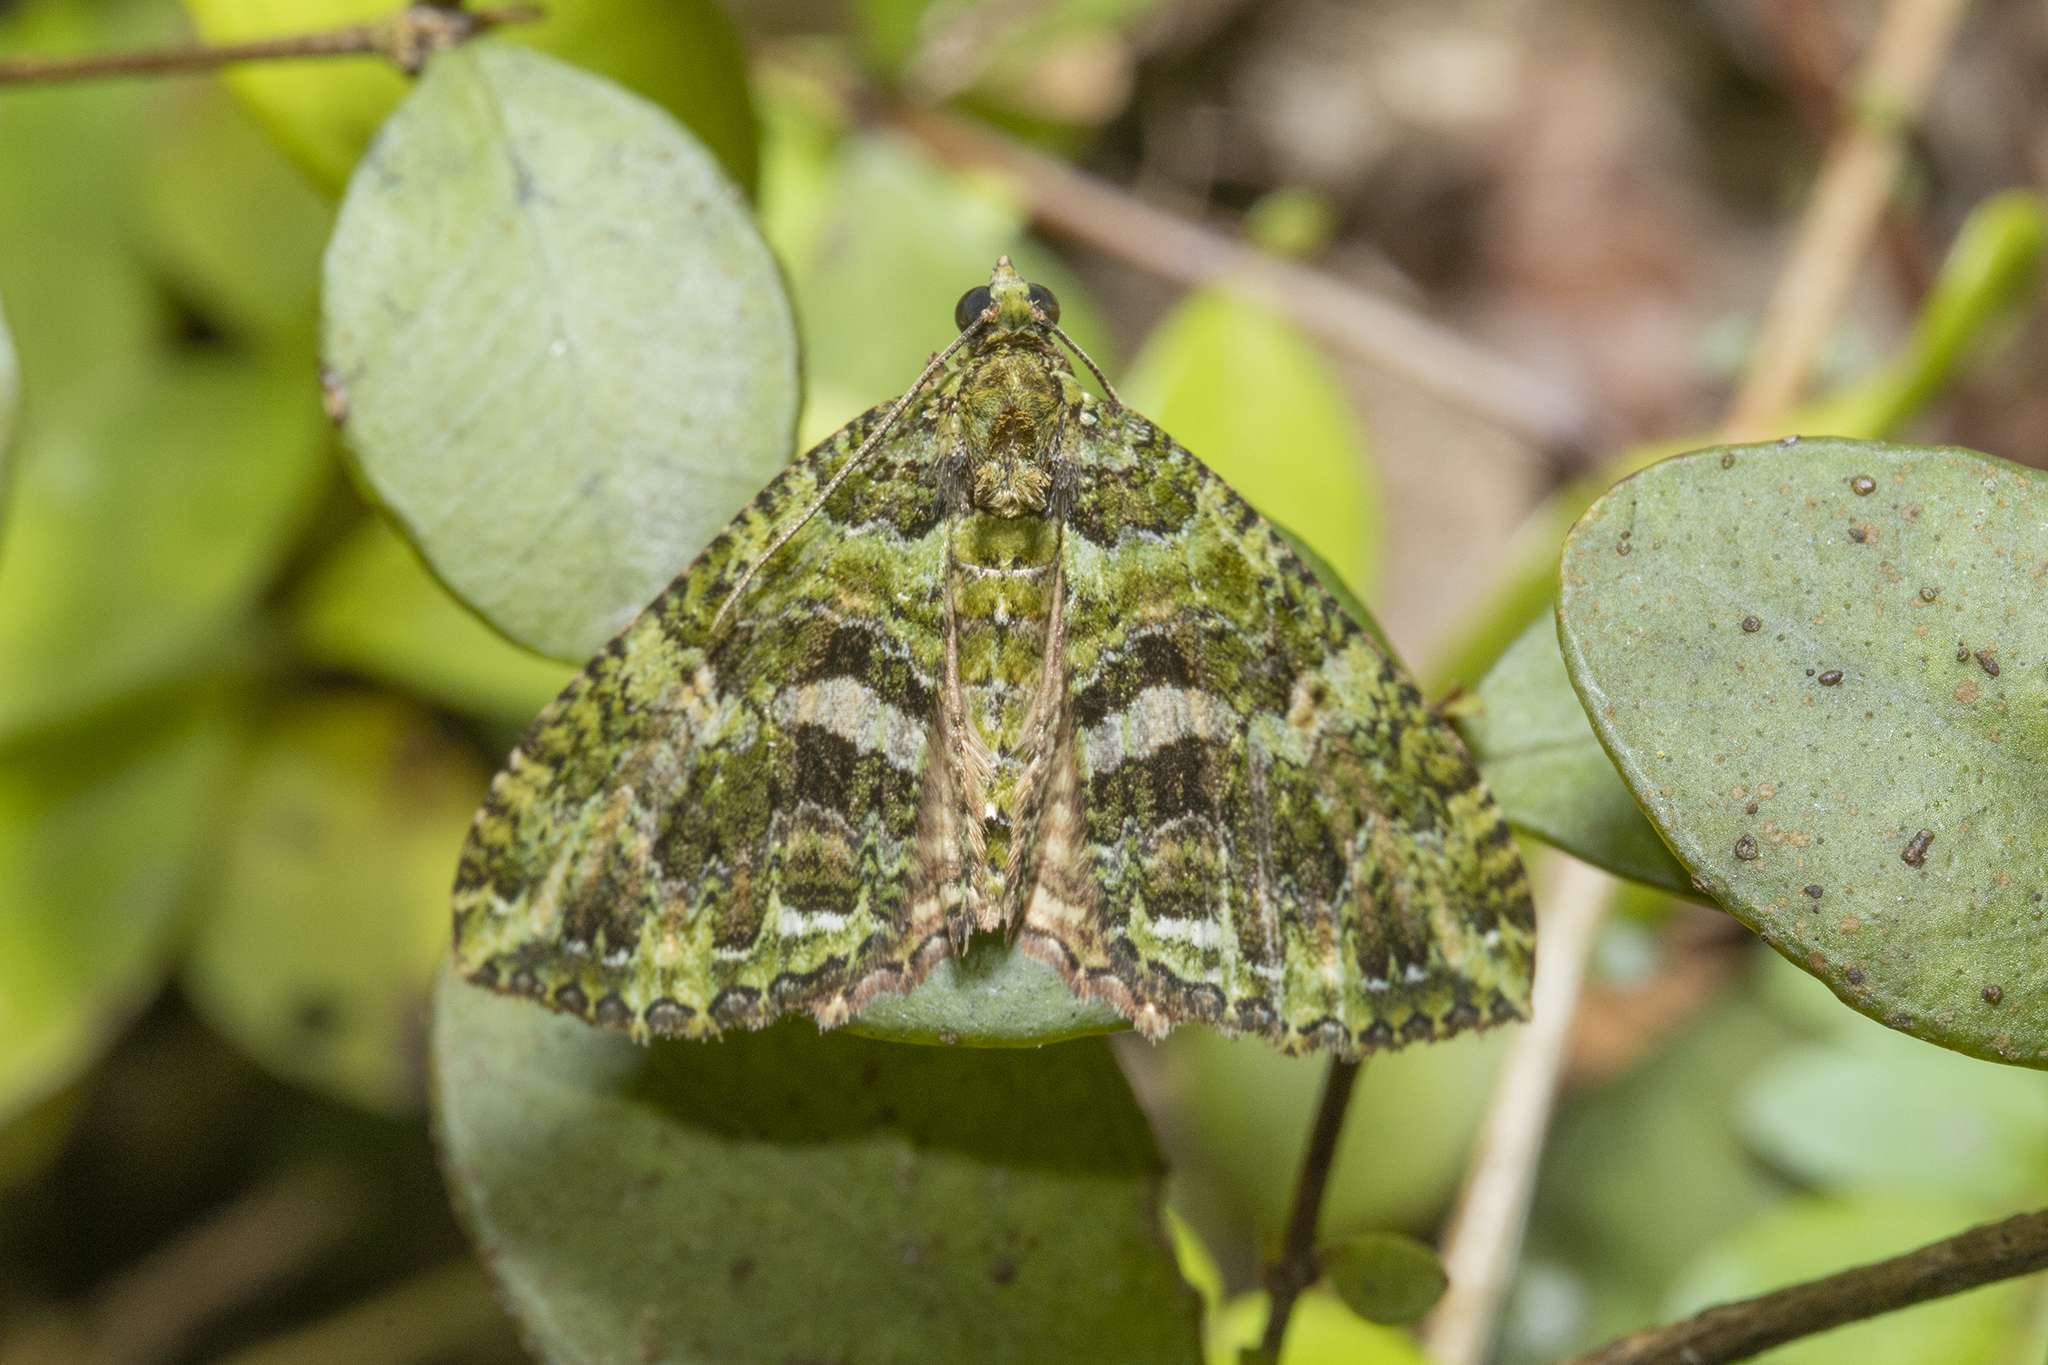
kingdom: Animalia
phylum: Arthropoda
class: Insecta
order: Lepidoptera
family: Geometridae
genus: Austrocidaria
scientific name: Austrocidaria similata
